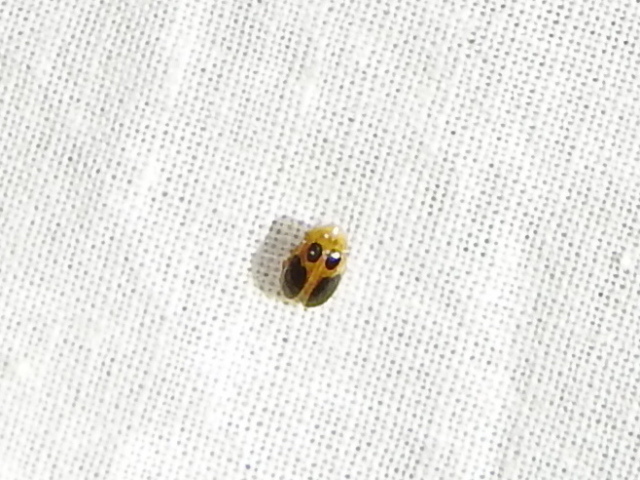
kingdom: Animalia
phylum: Arthropoda
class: Insecta
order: Coleoptera
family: Scirtidae
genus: Sacodes
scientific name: Sacodes pulchella
